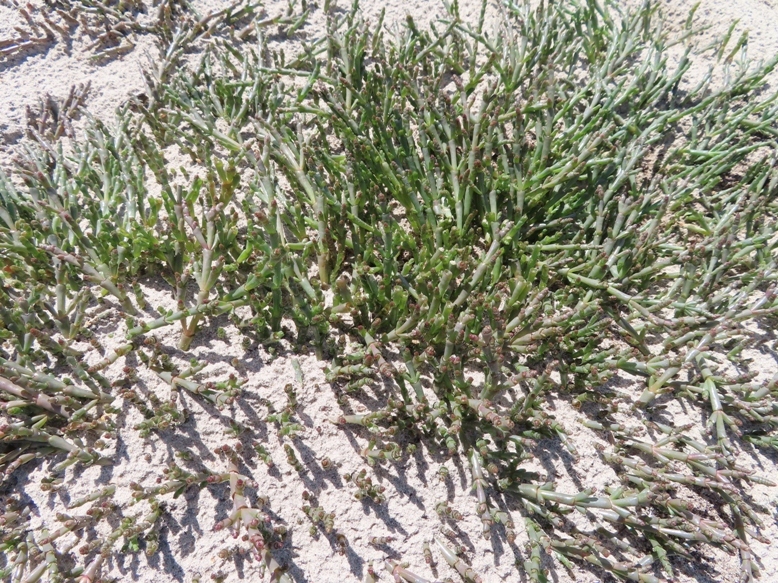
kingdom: Plantae
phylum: Tracheophyta
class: Magnoliopsida
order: Caryophyllales
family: Amaranthaceae
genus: Salicornia
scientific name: Salicornia natalensis
